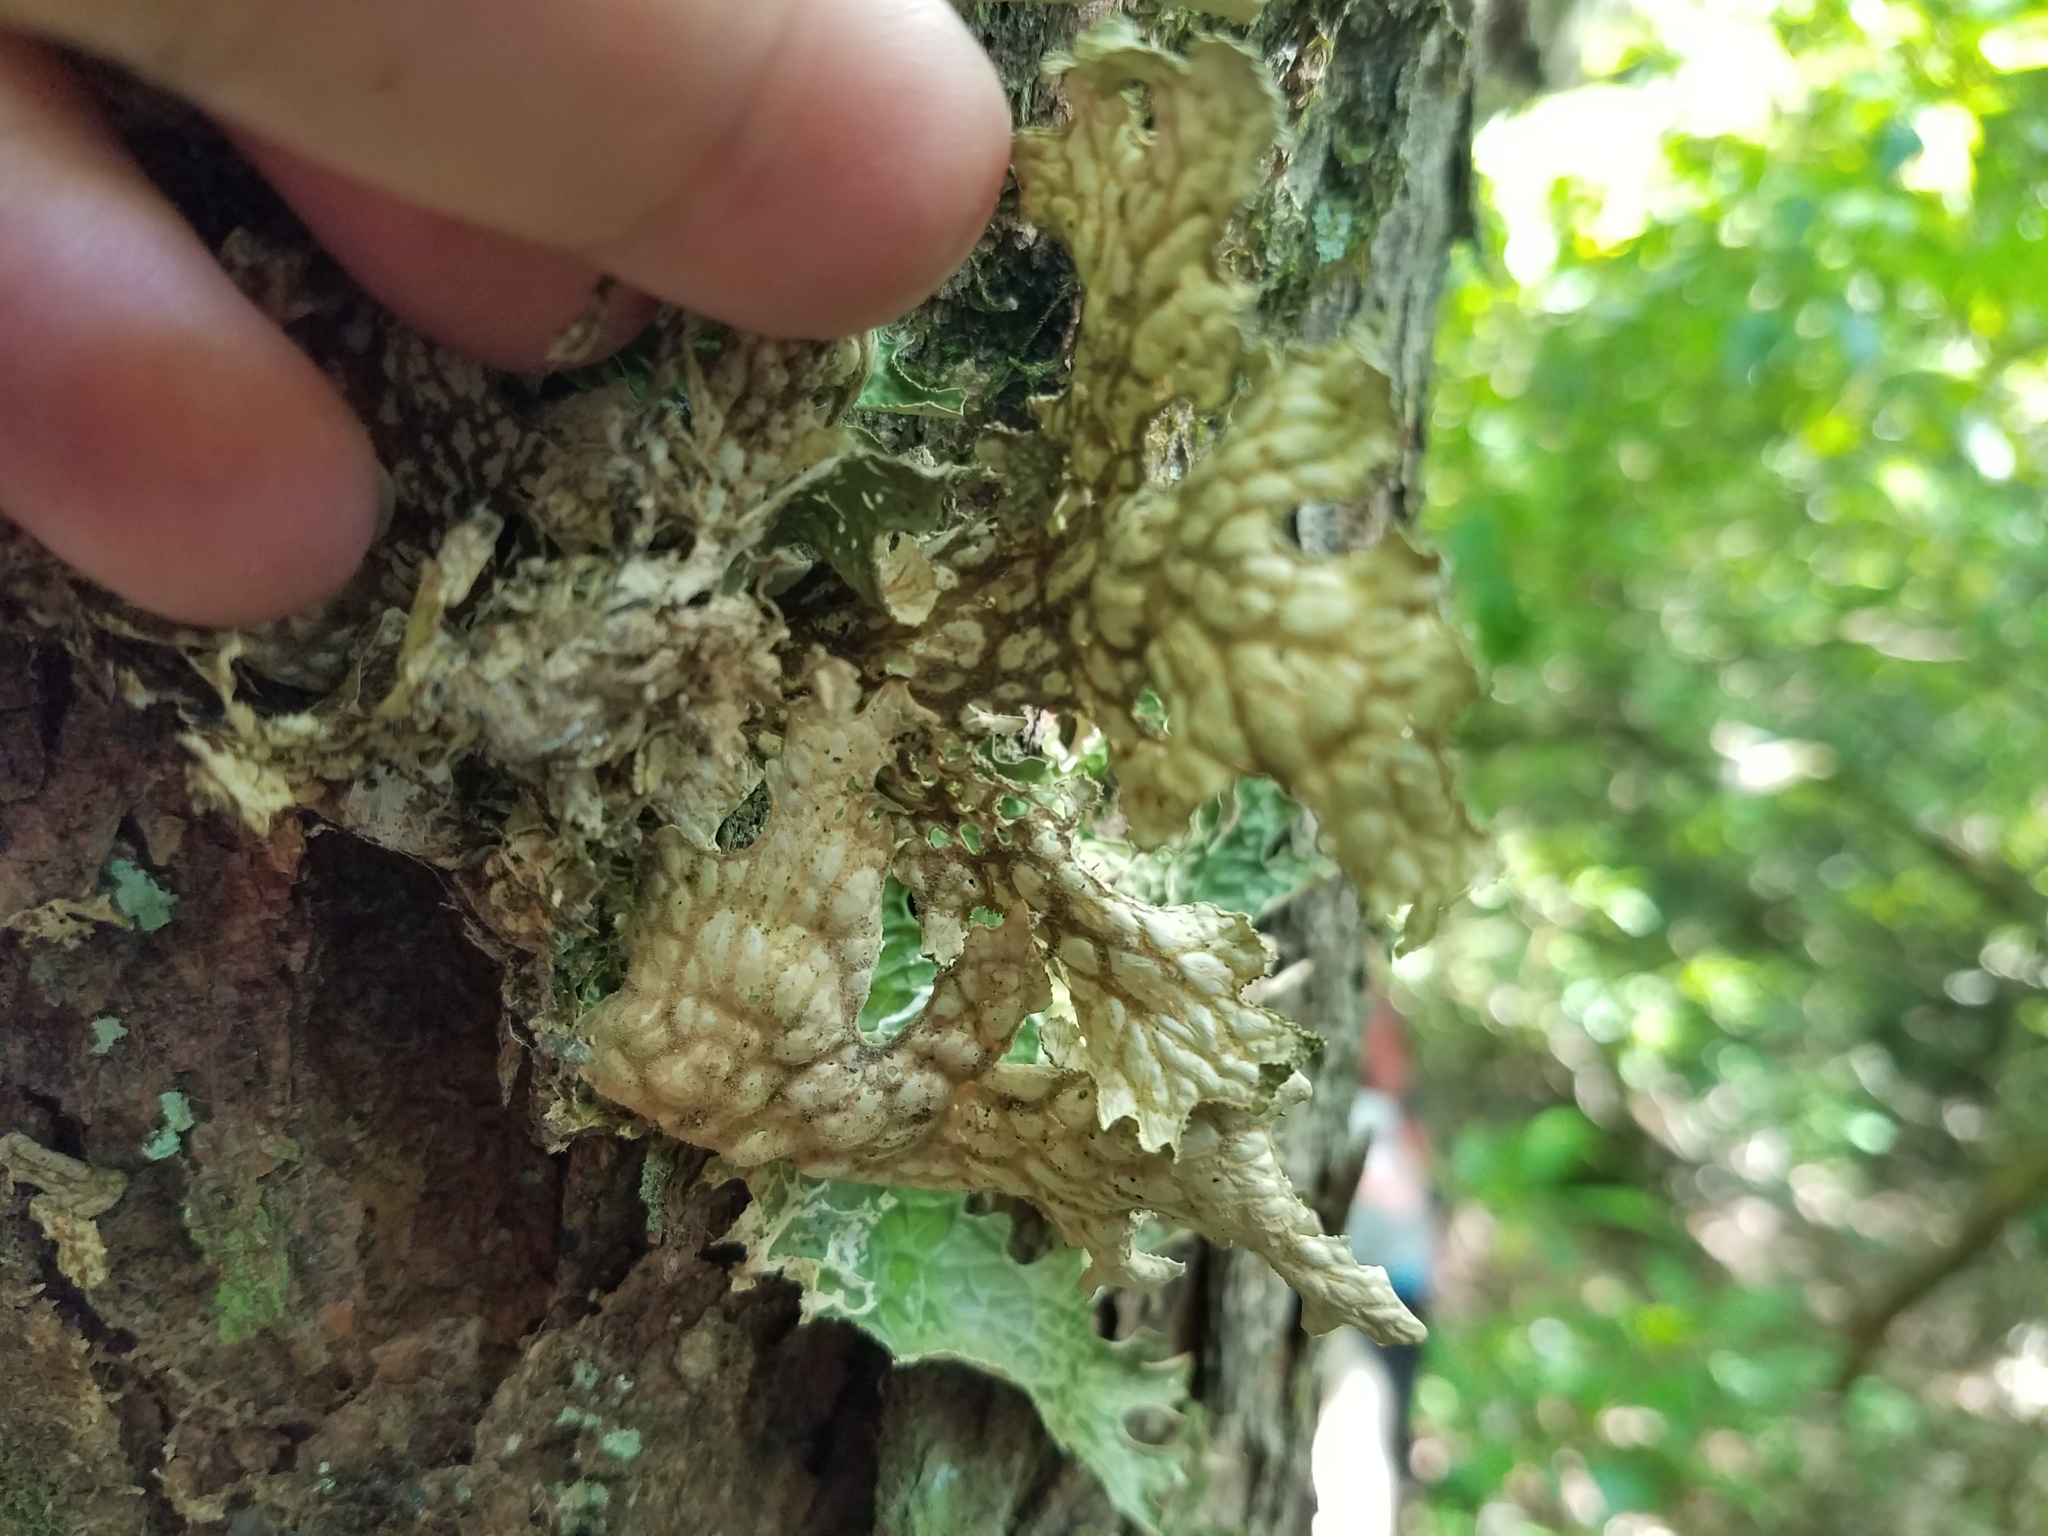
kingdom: Fungi
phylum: Ascomycota
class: Lecanoromycetes
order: Peltigerales
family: Lobariaceae
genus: Lobaria
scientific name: Lobaria pulmonaria
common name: Lungwort
